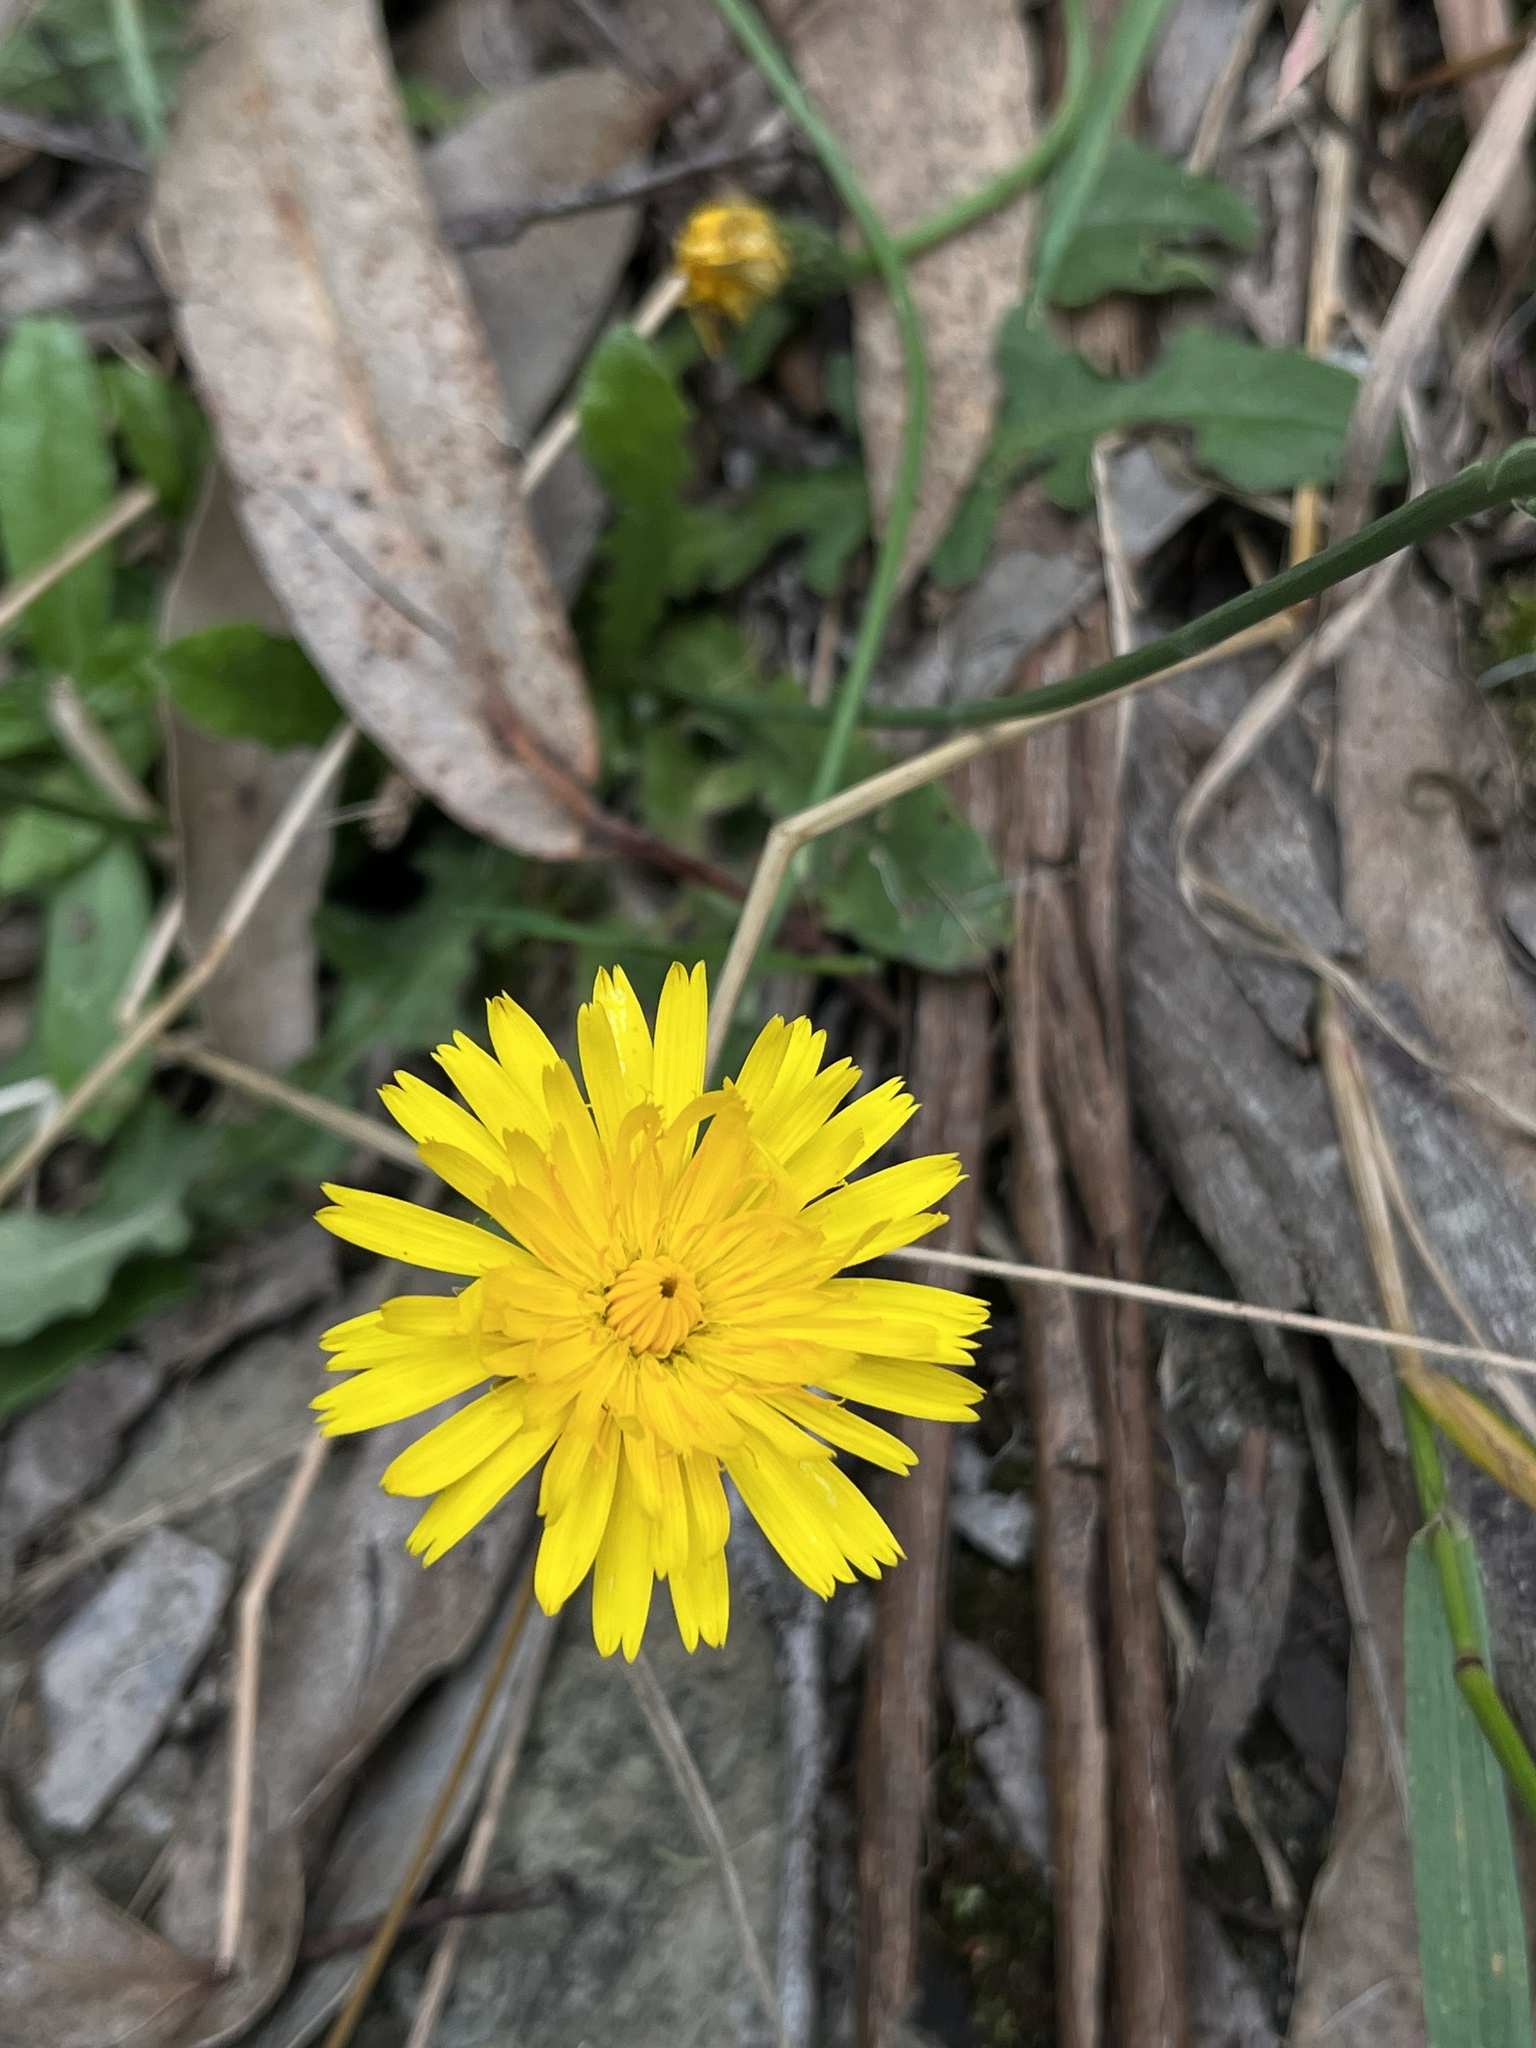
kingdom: Plantae
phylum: Tracheophyta
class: Magnoliopsida
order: Asterales
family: Asteraceae
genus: Hypochaeris
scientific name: Hypochaeris radicata
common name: Flatweed
